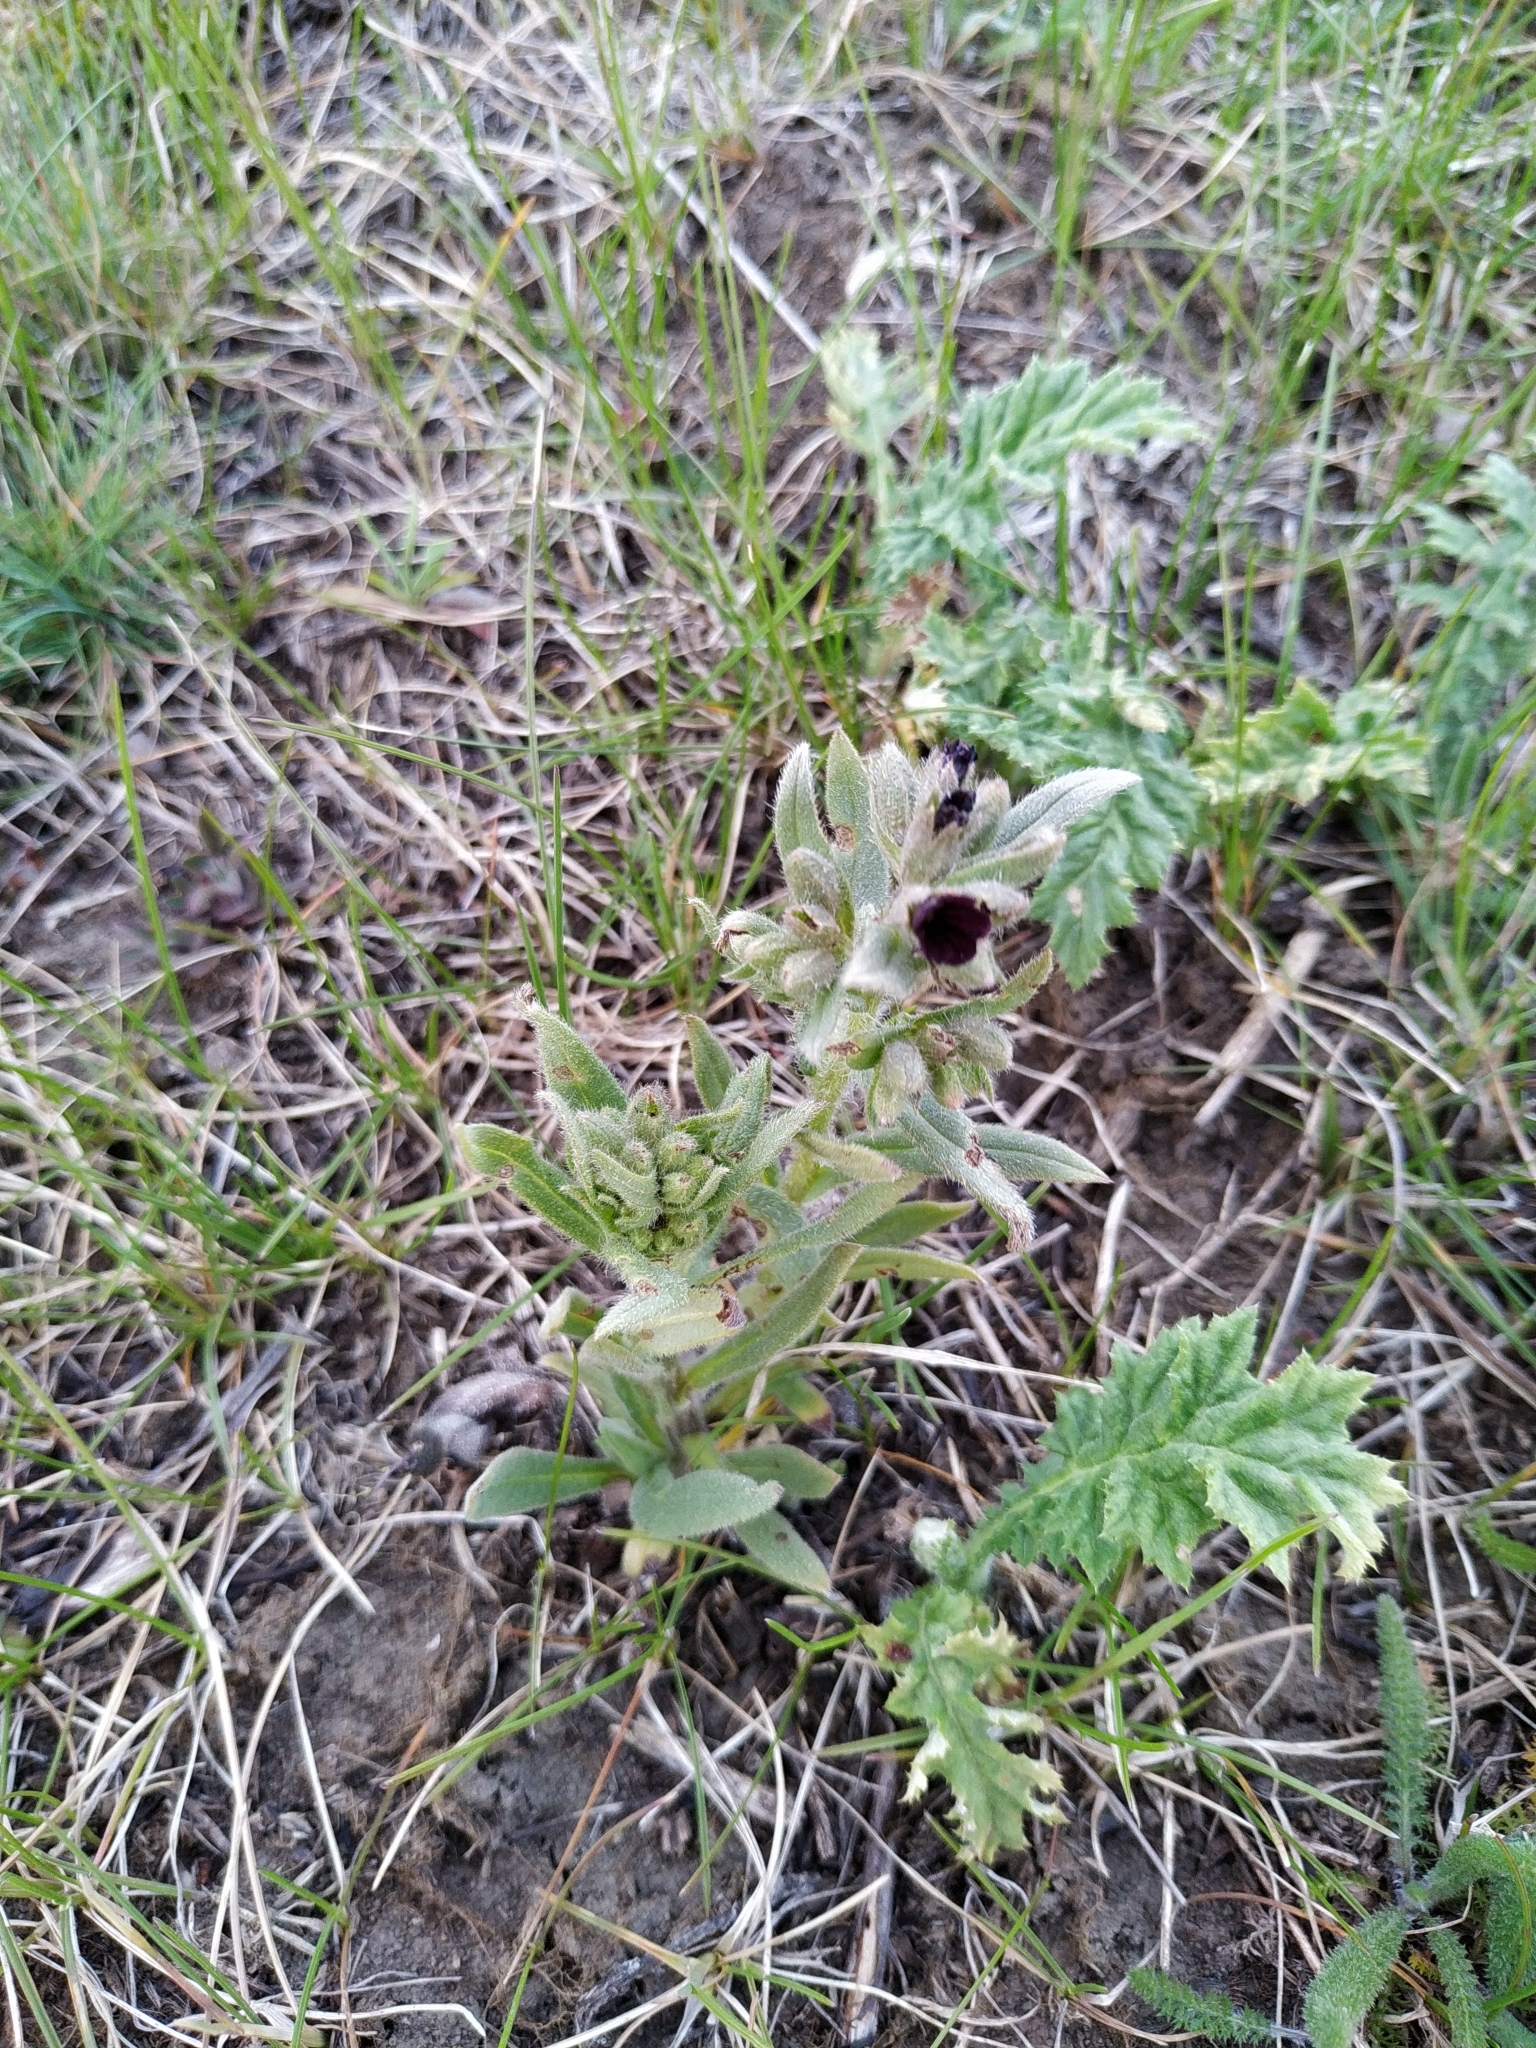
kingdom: Plantae
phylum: Tracheophyta
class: Magnoliopsida
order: Boraginales
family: Boraginaceae
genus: Nonea
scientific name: Nonea pulla
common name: Brown nonea
